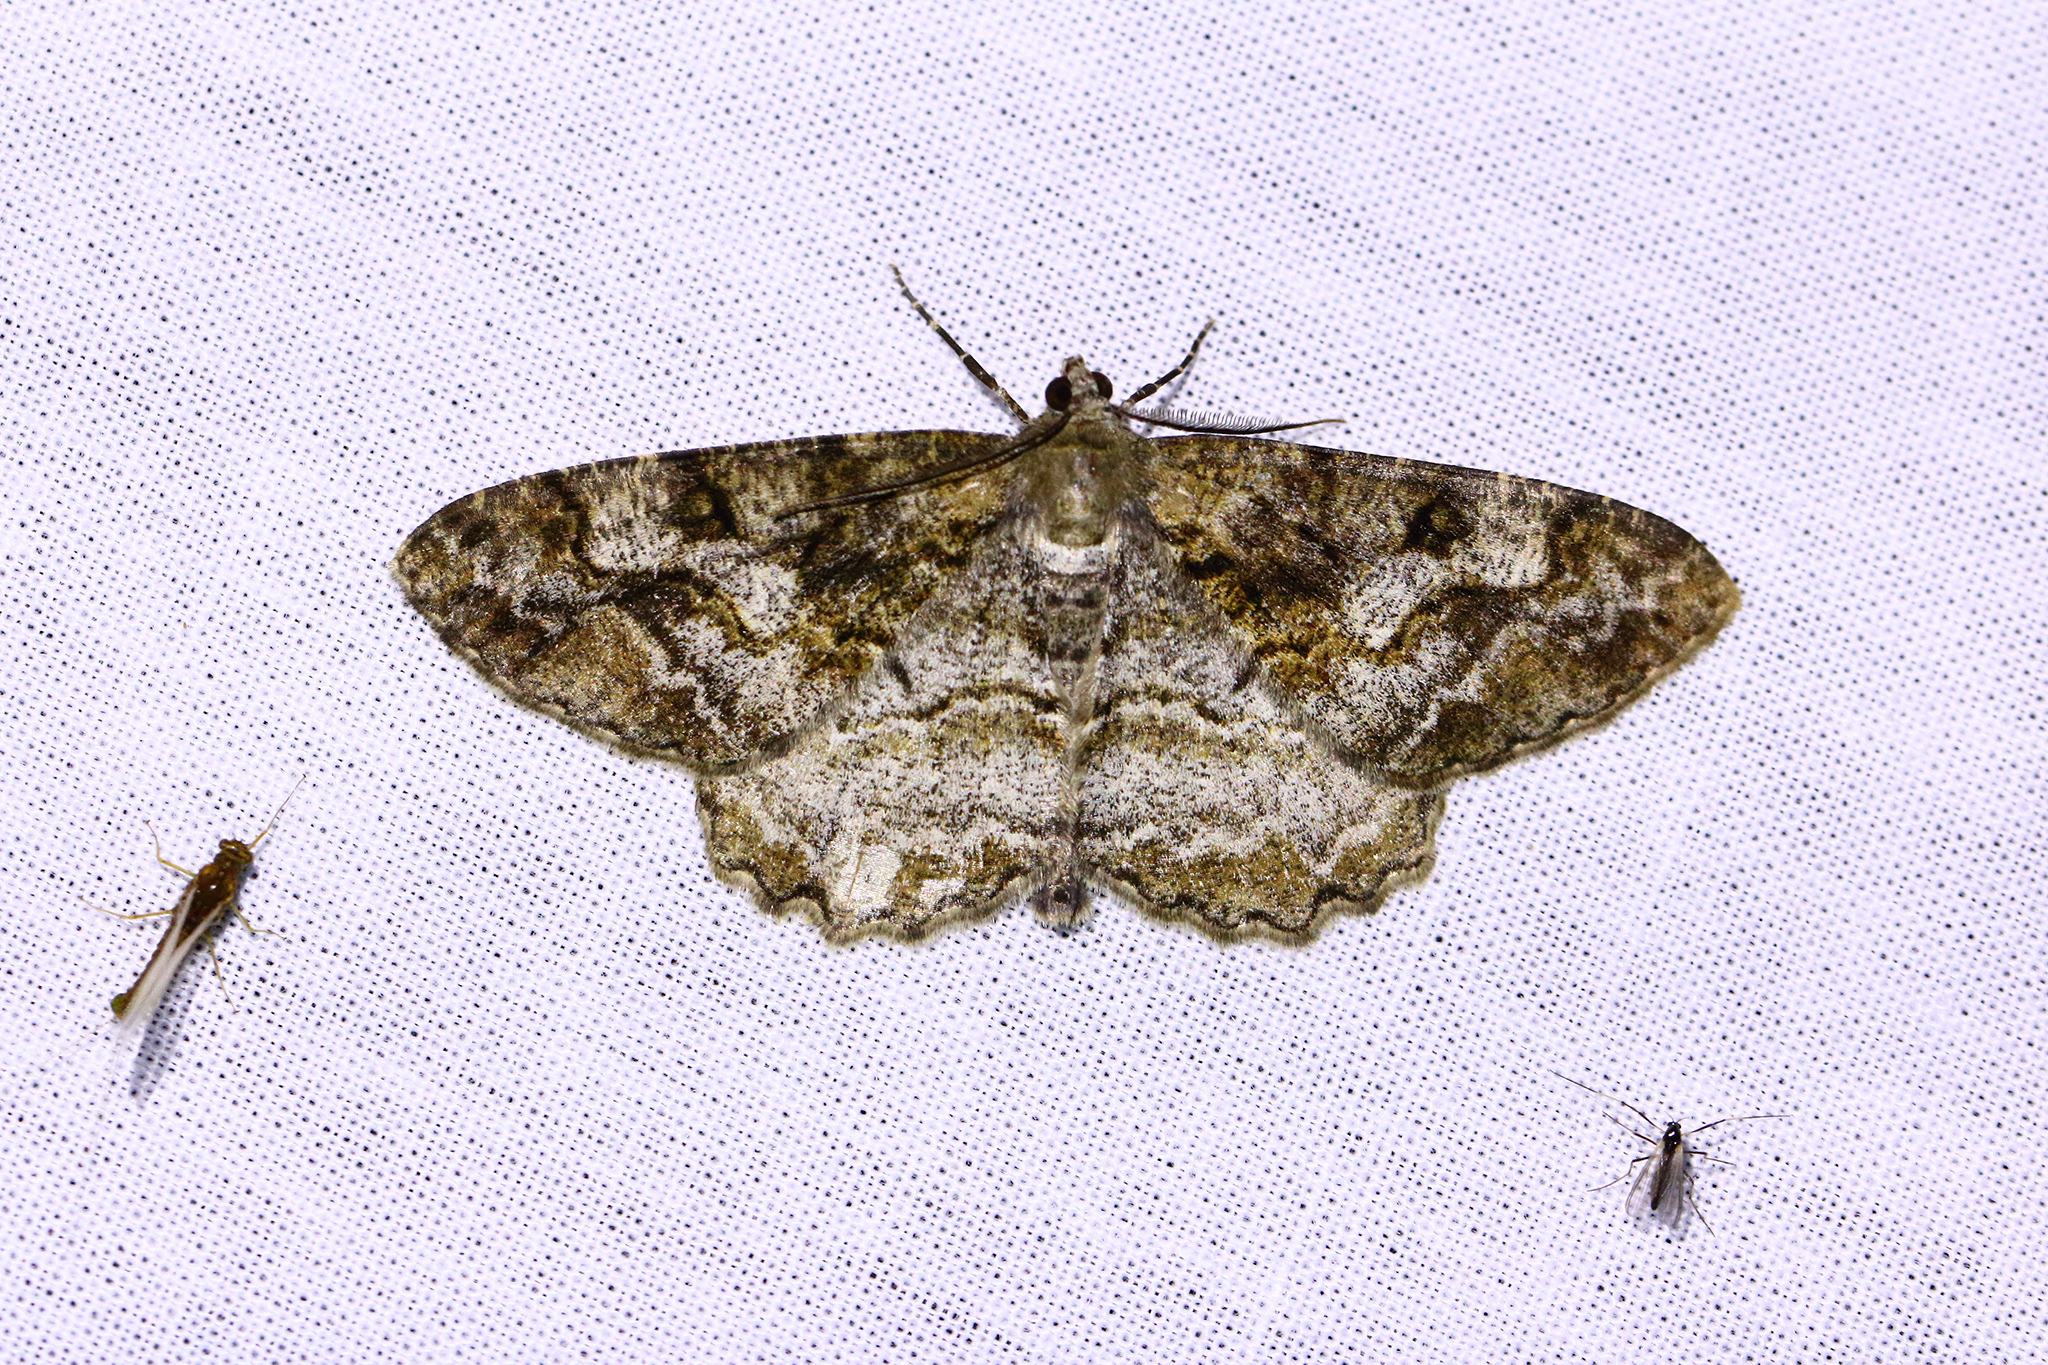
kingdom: Animalia
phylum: Arthropoda
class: Insecta
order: Lepidoptera
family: Geometridae
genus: Alcis
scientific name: Alcis repandata
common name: Mottled beauty
